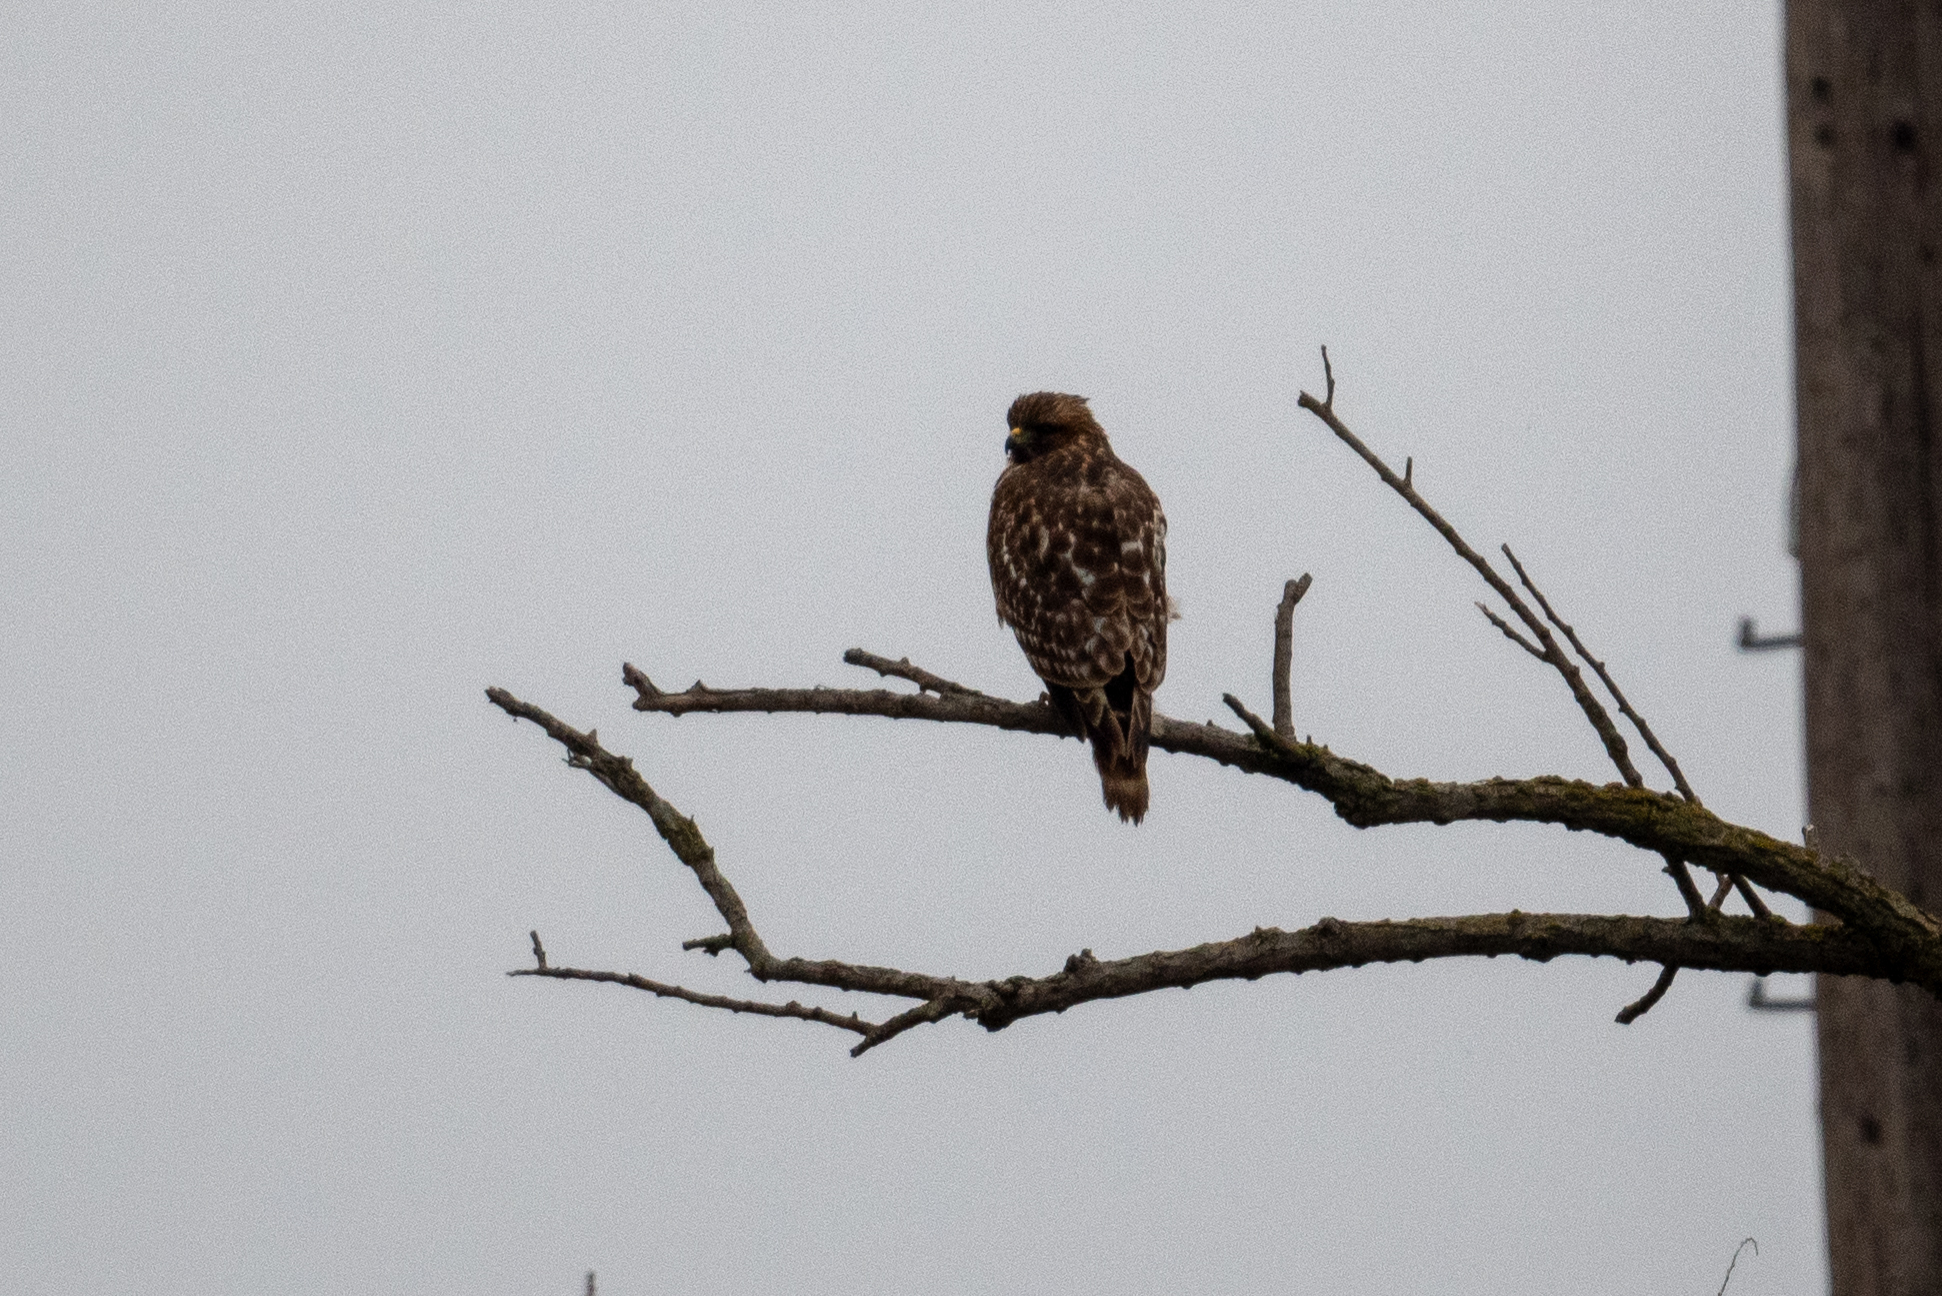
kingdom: Animalia
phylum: Chordata
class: Aves
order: Accipitriformes
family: Accipitridae
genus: Buteo
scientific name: Buteo lineatus
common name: Red-shouldered hawk
